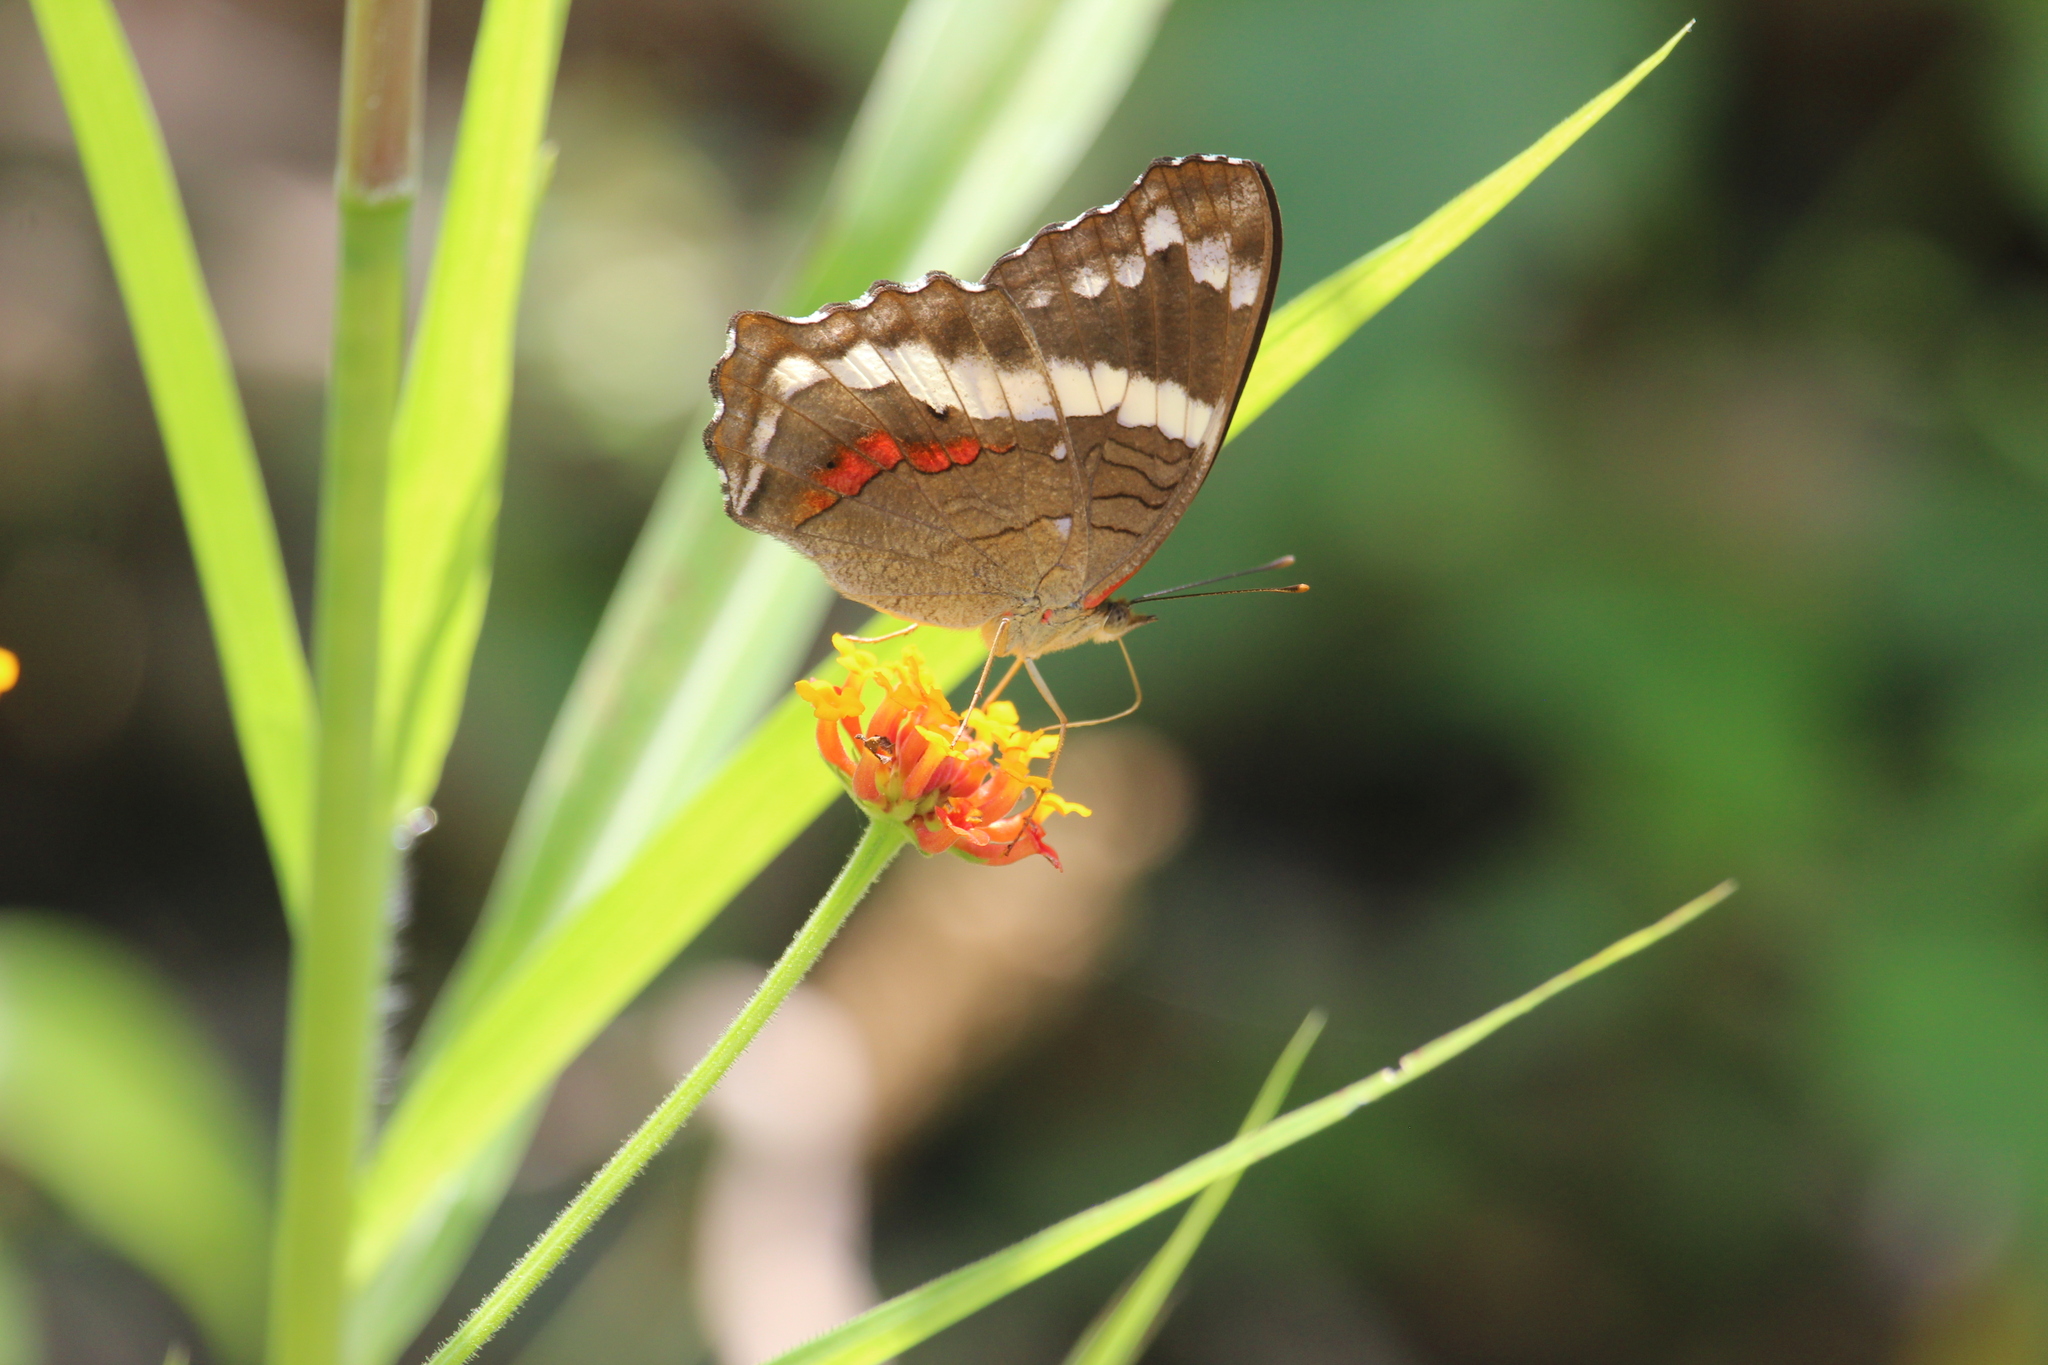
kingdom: Animalia
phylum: Arthropoda
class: Insecta
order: Lepidoptera
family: Nymphalidae
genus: Anartia
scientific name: Anartia fatima
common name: Banded peacock
